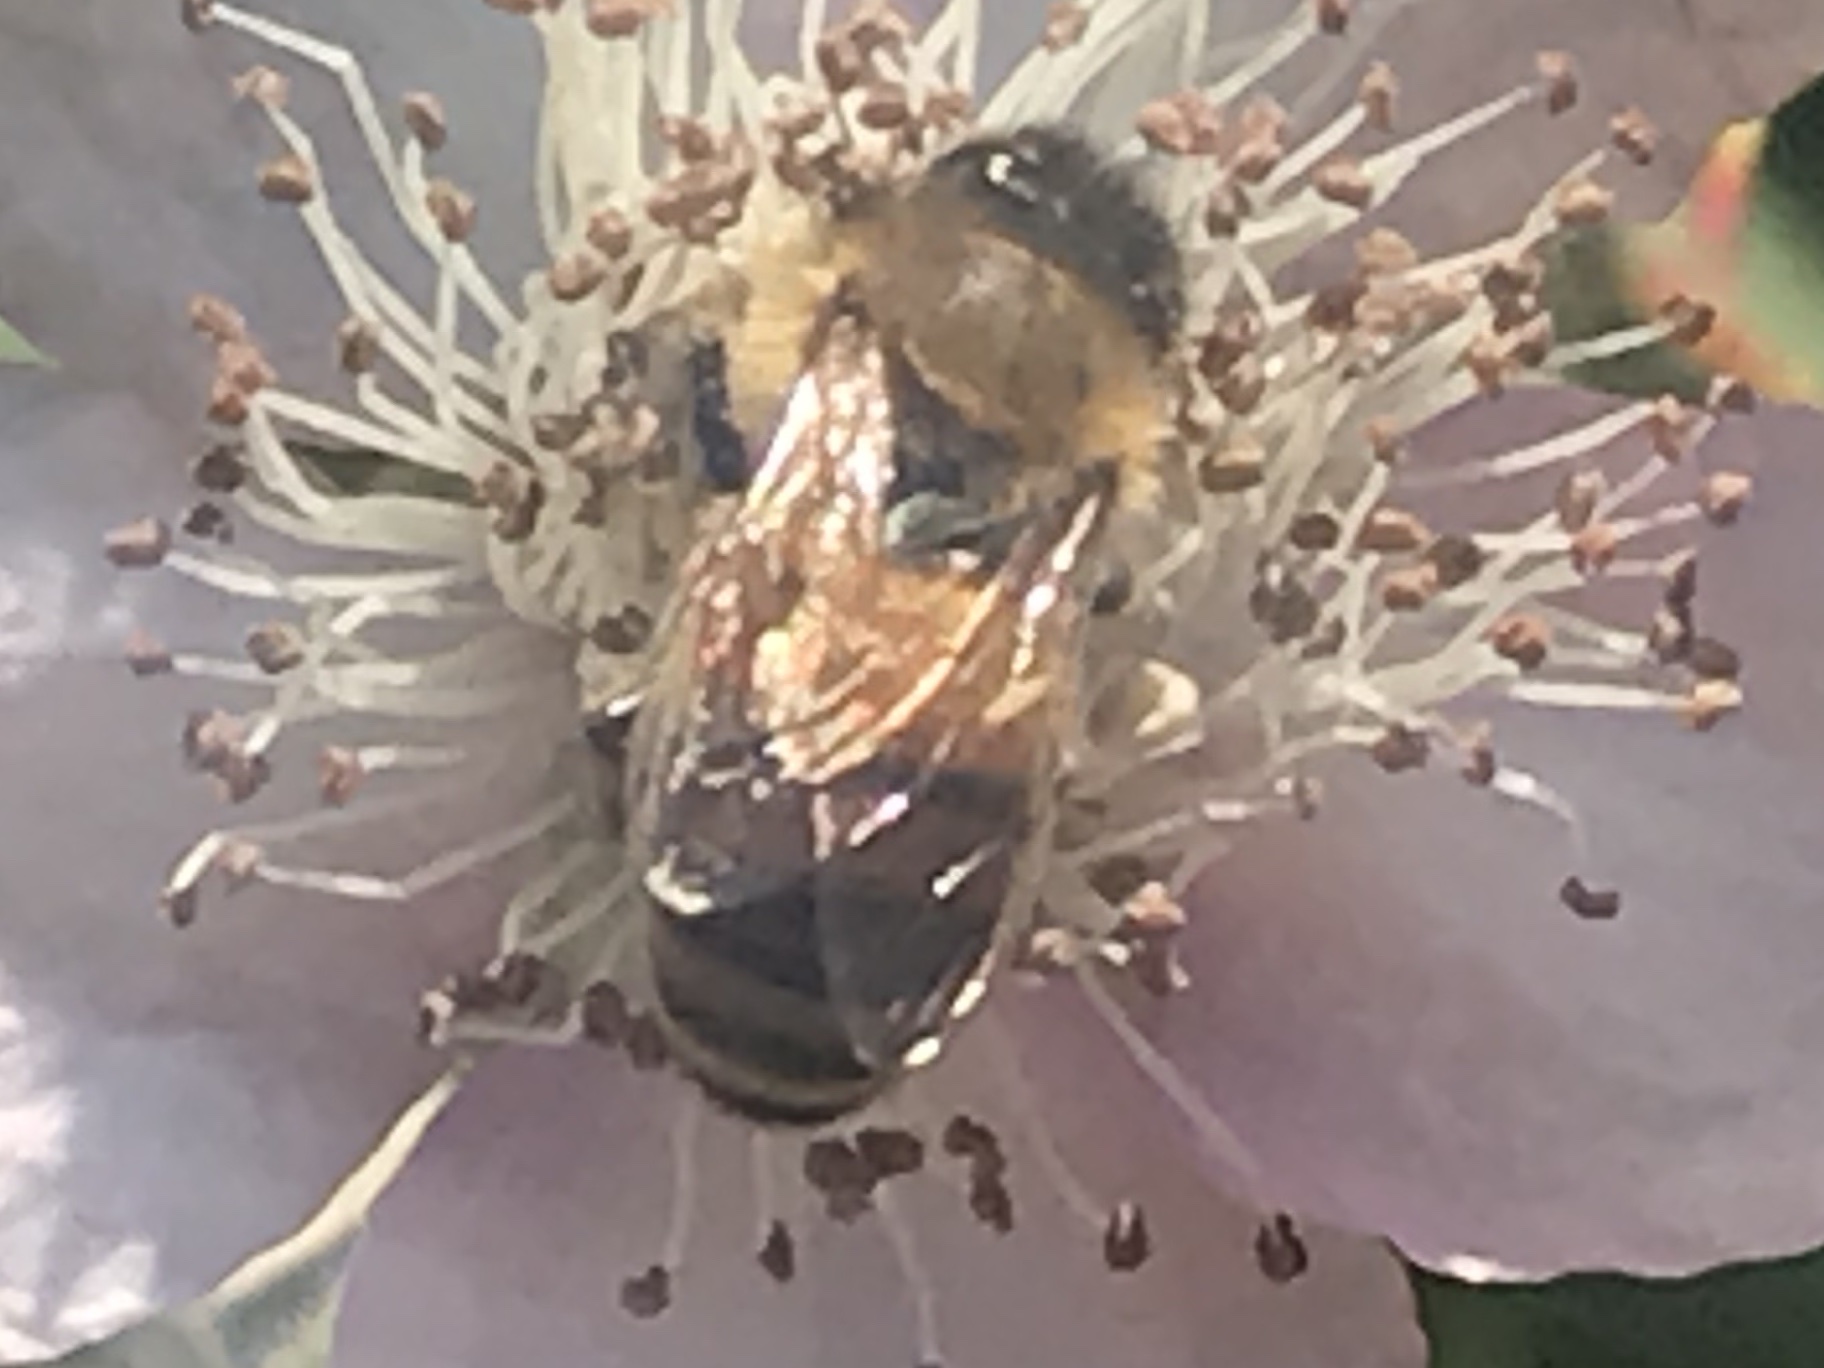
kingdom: Animalia
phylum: Arthropoda
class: Insecta
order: Hymenoptera
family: Apidae
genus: Apis
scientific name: Apis mellifera
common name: Honey bee
